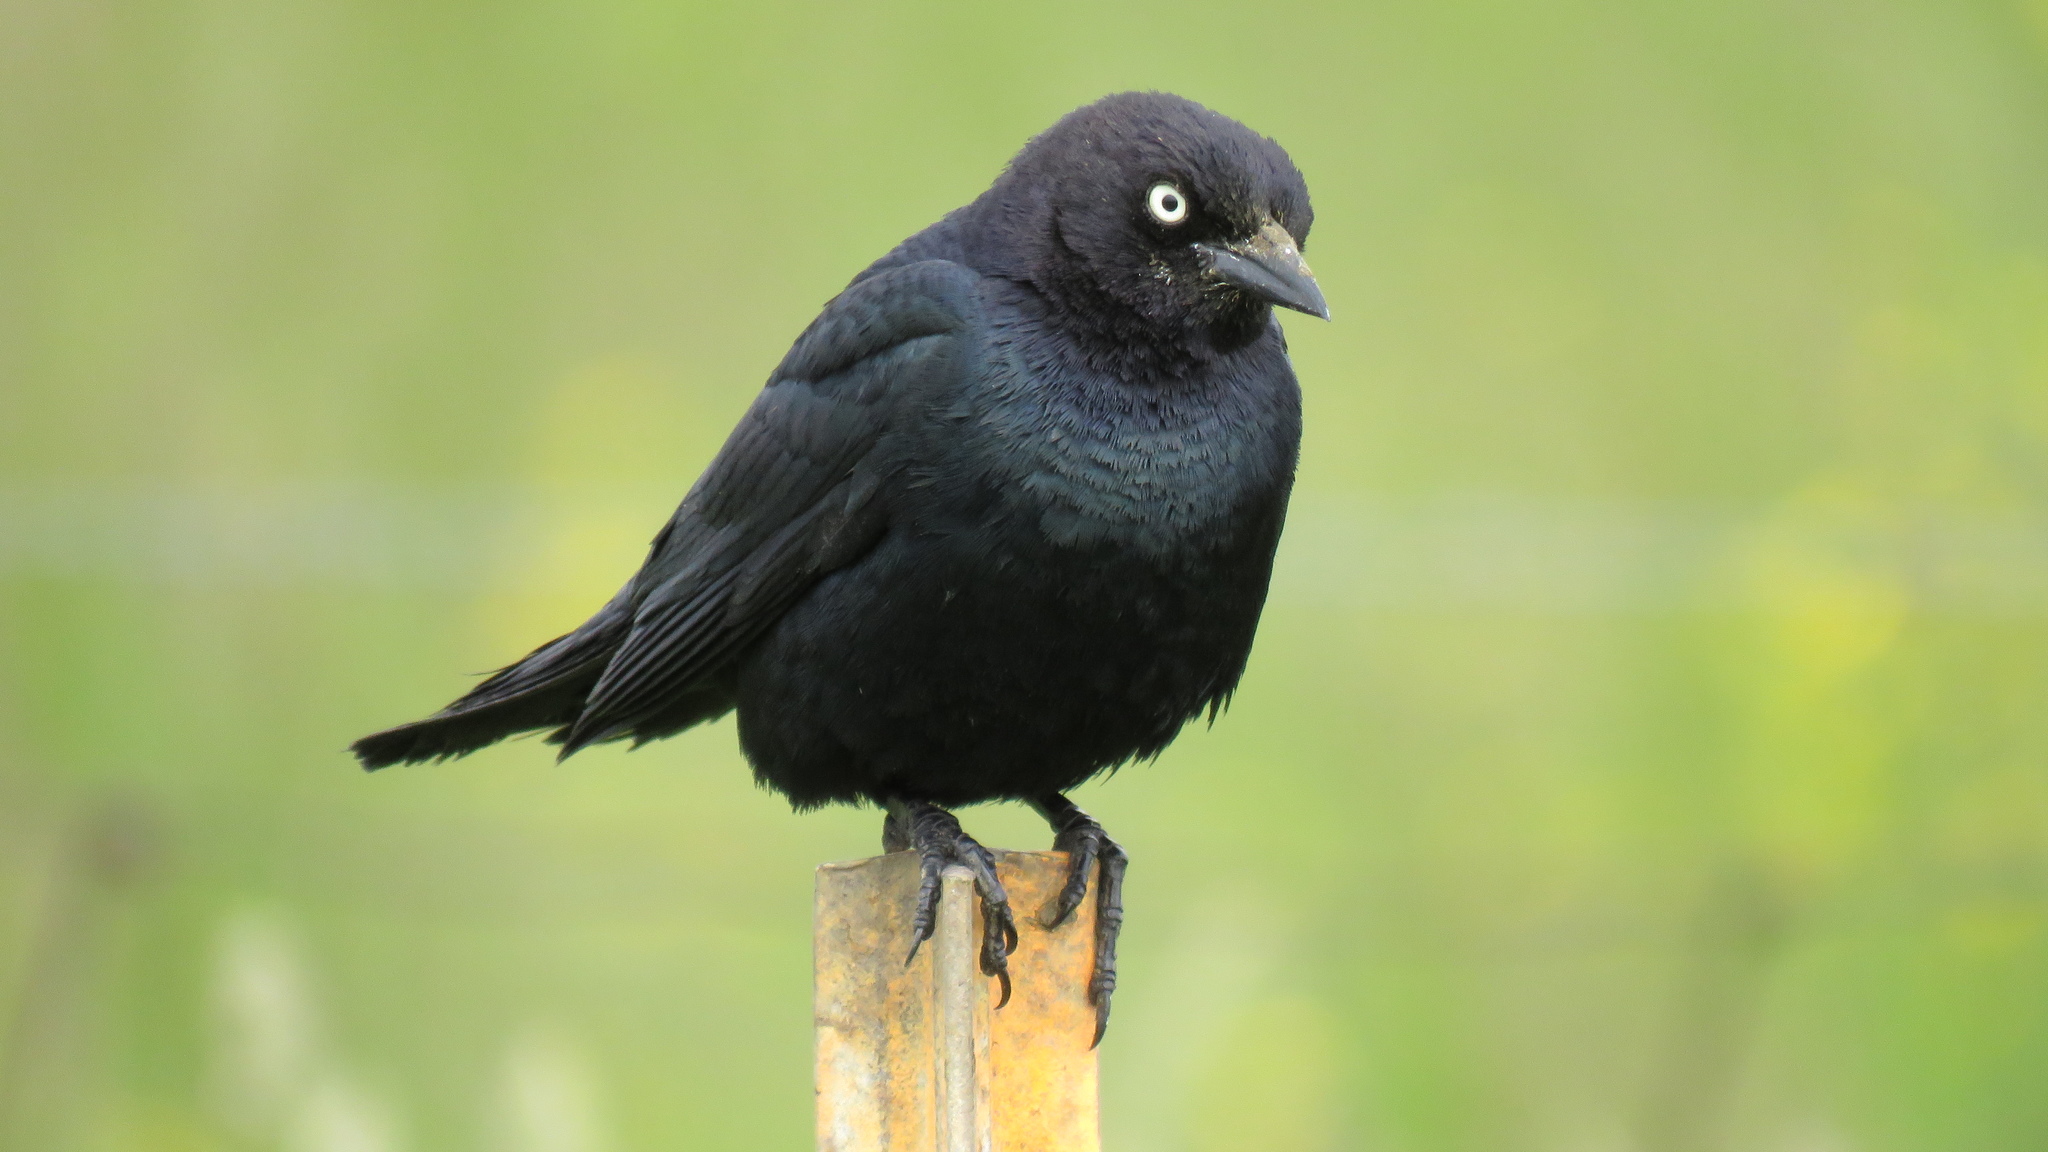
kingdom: Animalia
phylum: Chordata
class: Aves
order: Passeriformes
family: Icteridae
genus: Euphagus
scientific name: Euphagus cyanocephalus
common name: Brewer's blackbird
